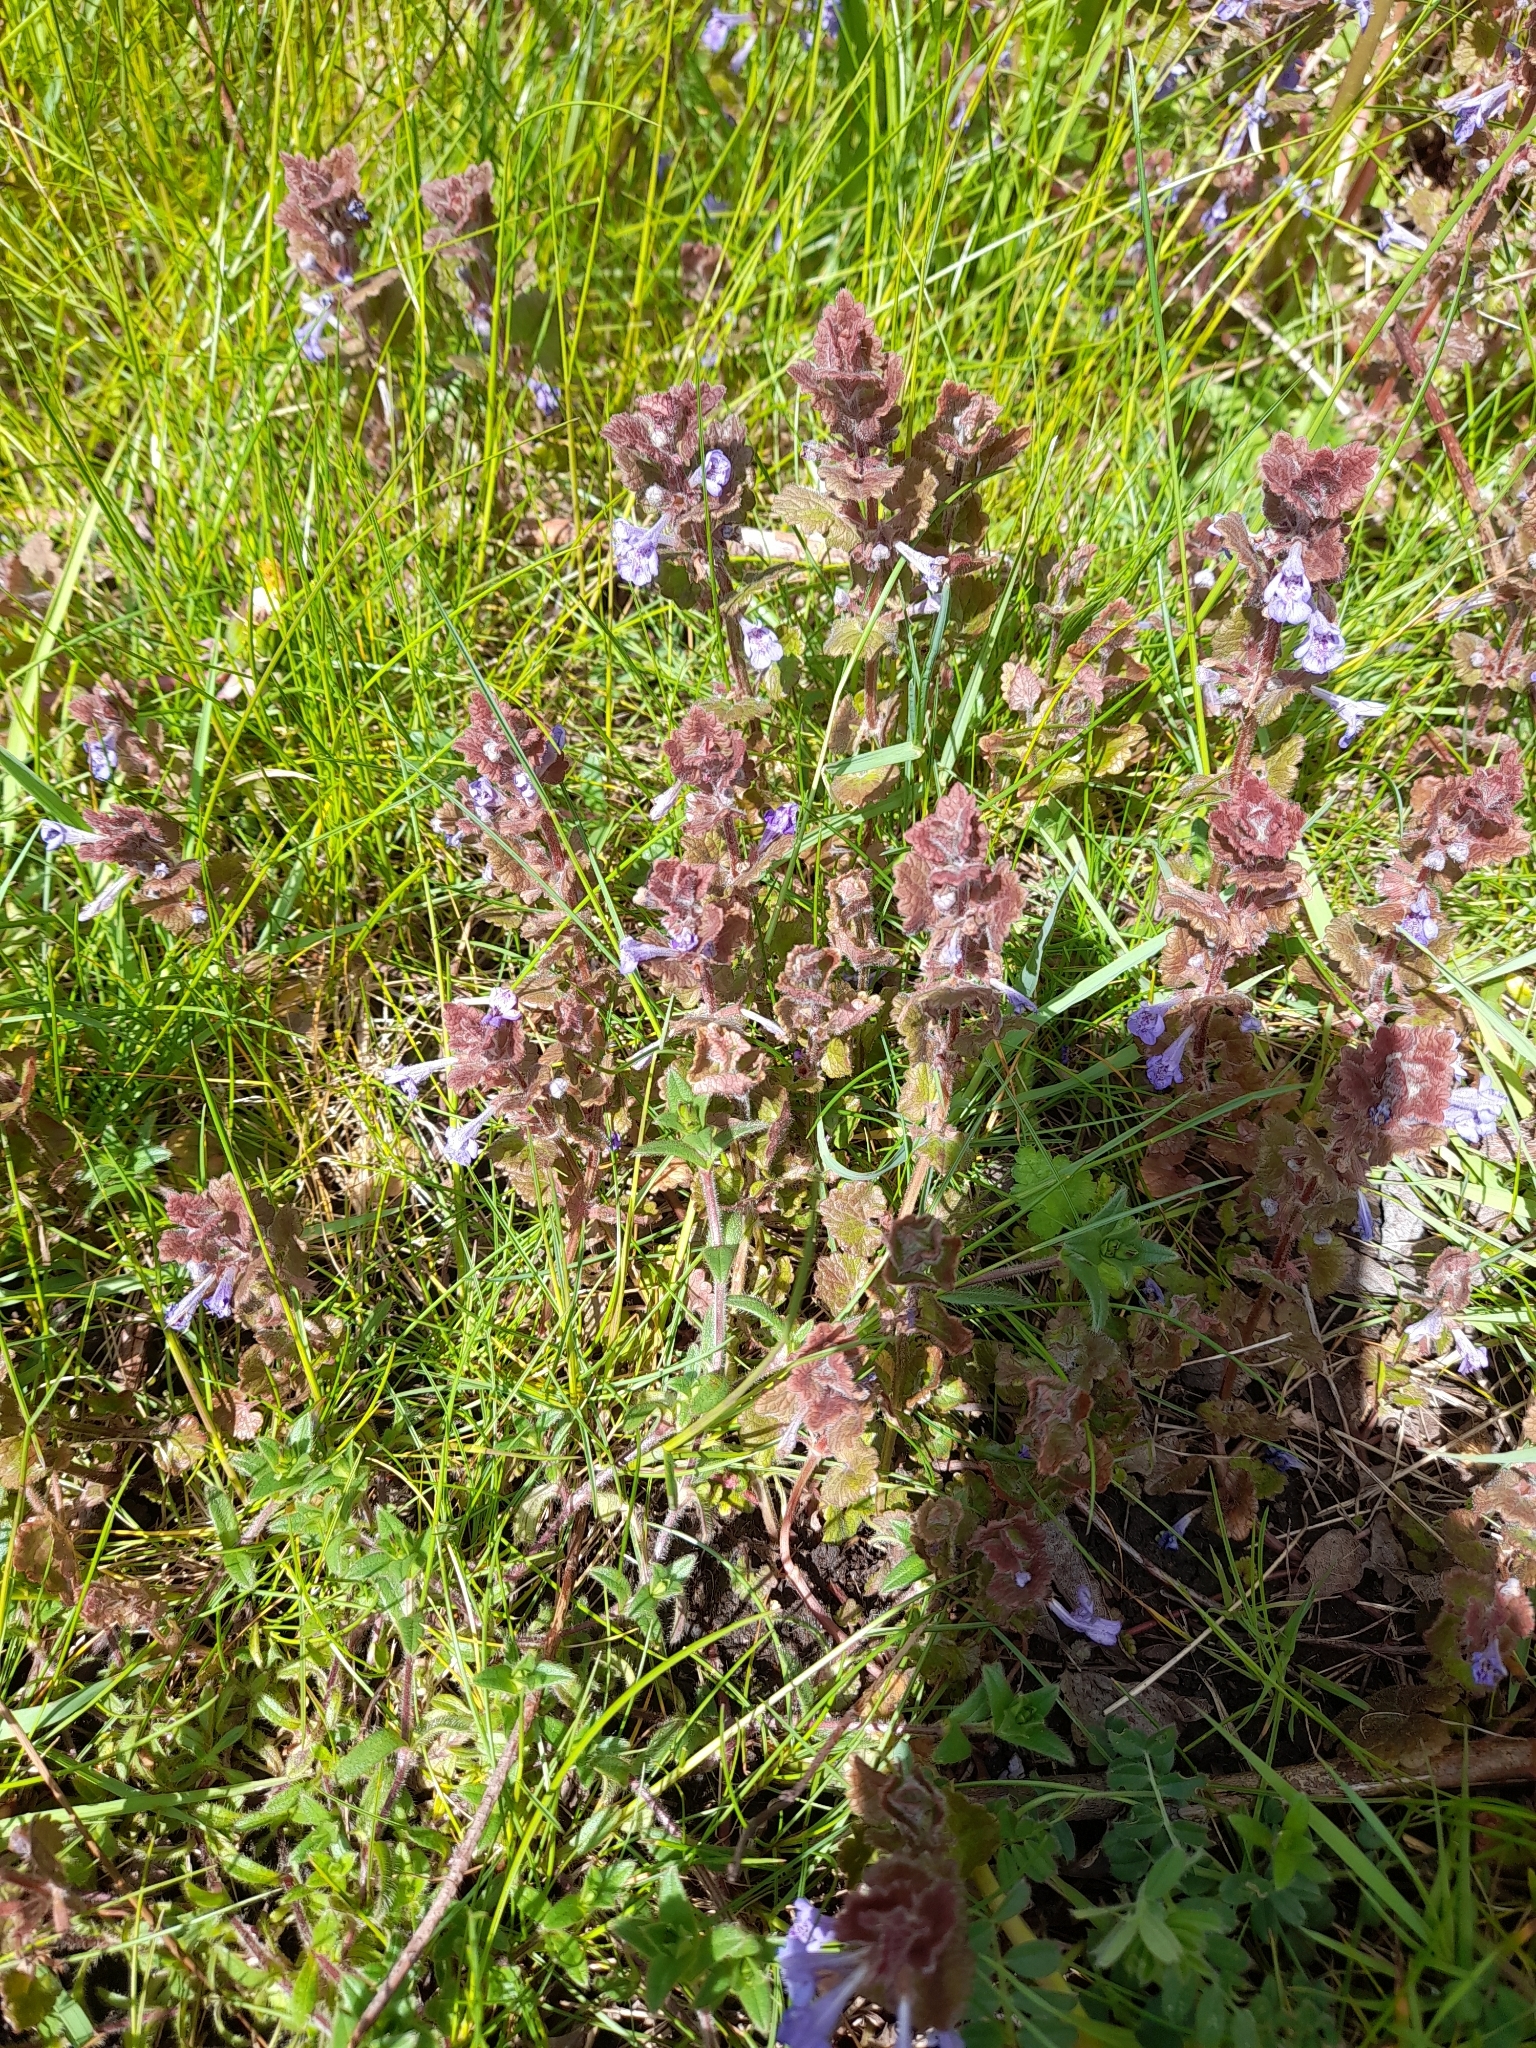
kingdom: Plantae
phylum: Tracheophyta
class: Magnoliopsida
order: Lamiales
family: Lamiaceae
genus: Glechoma
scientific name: Glechoma hederacea
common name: Ground ivy
